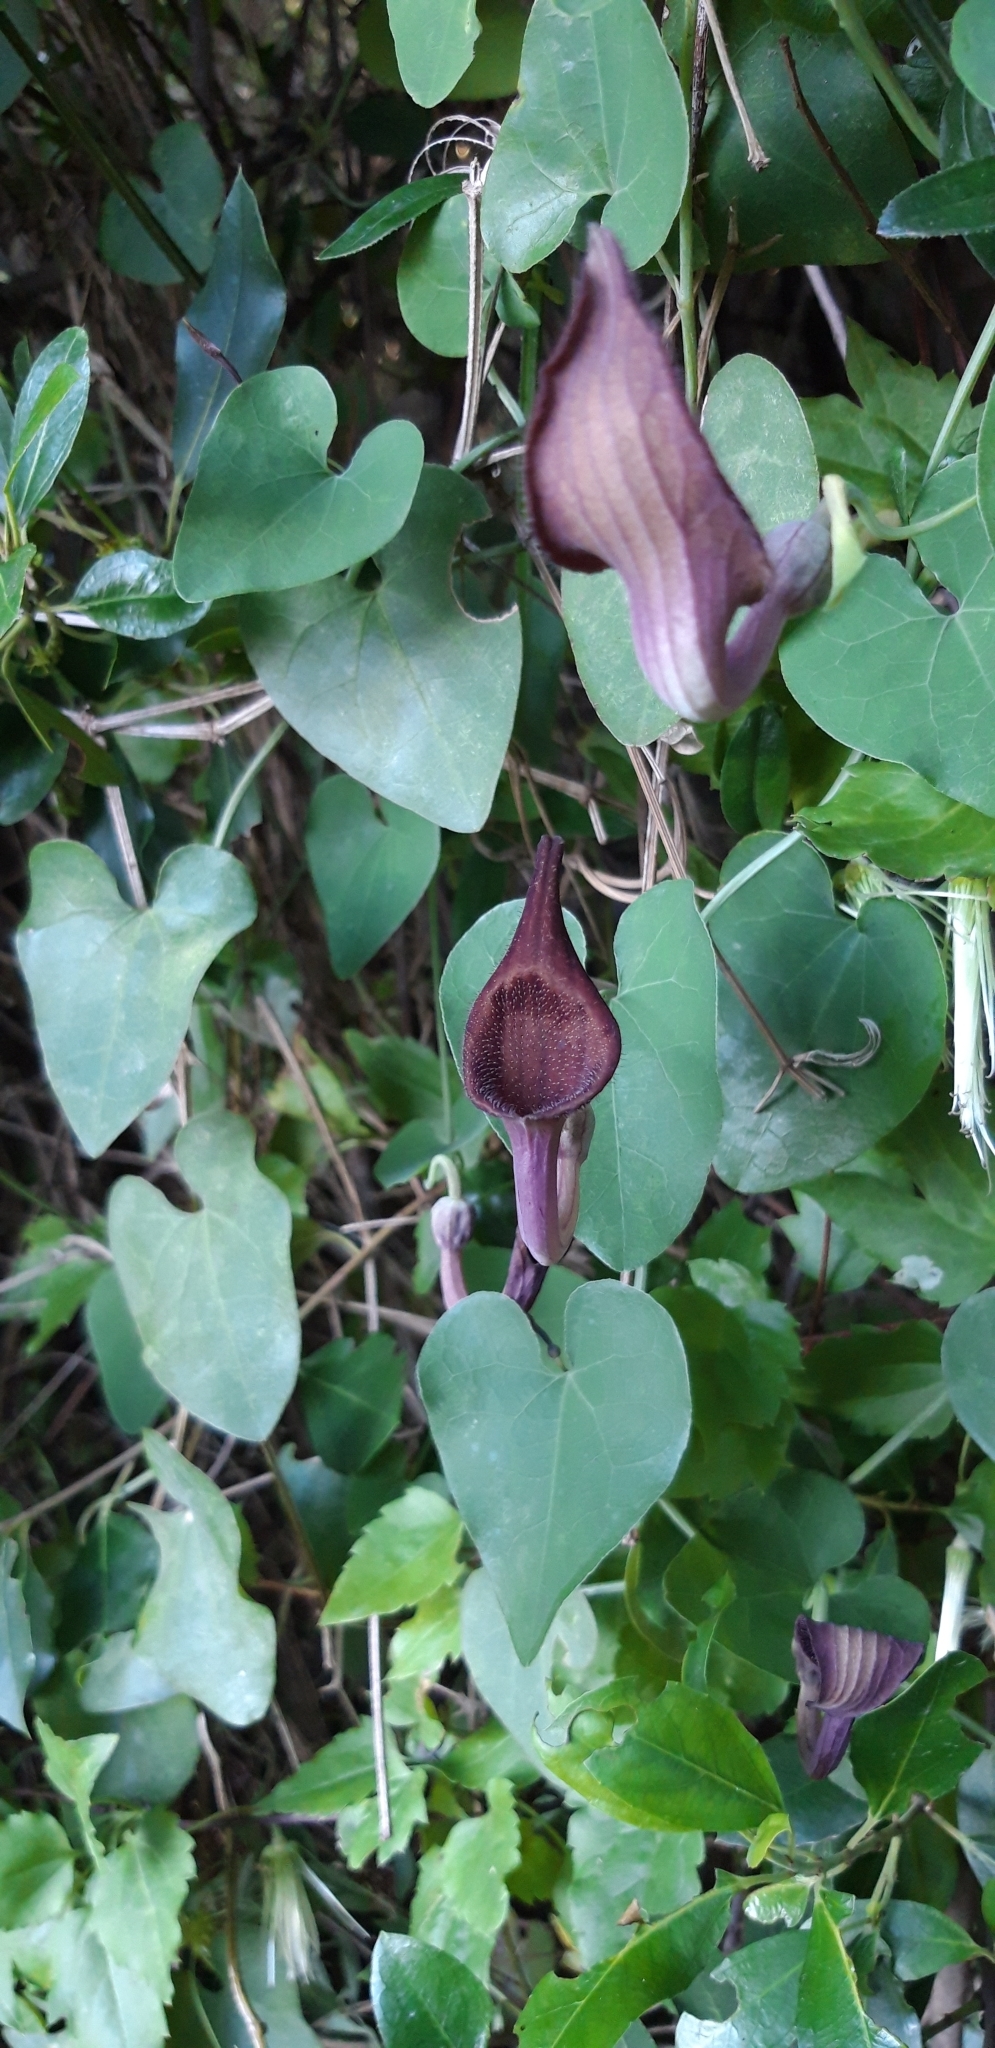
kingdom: Plantae
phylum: Tracheophyta
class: Magnoliopsida
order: Piperales
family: Aristolochiaceae
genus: Aristolochia
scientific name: Aristolochia baetica
